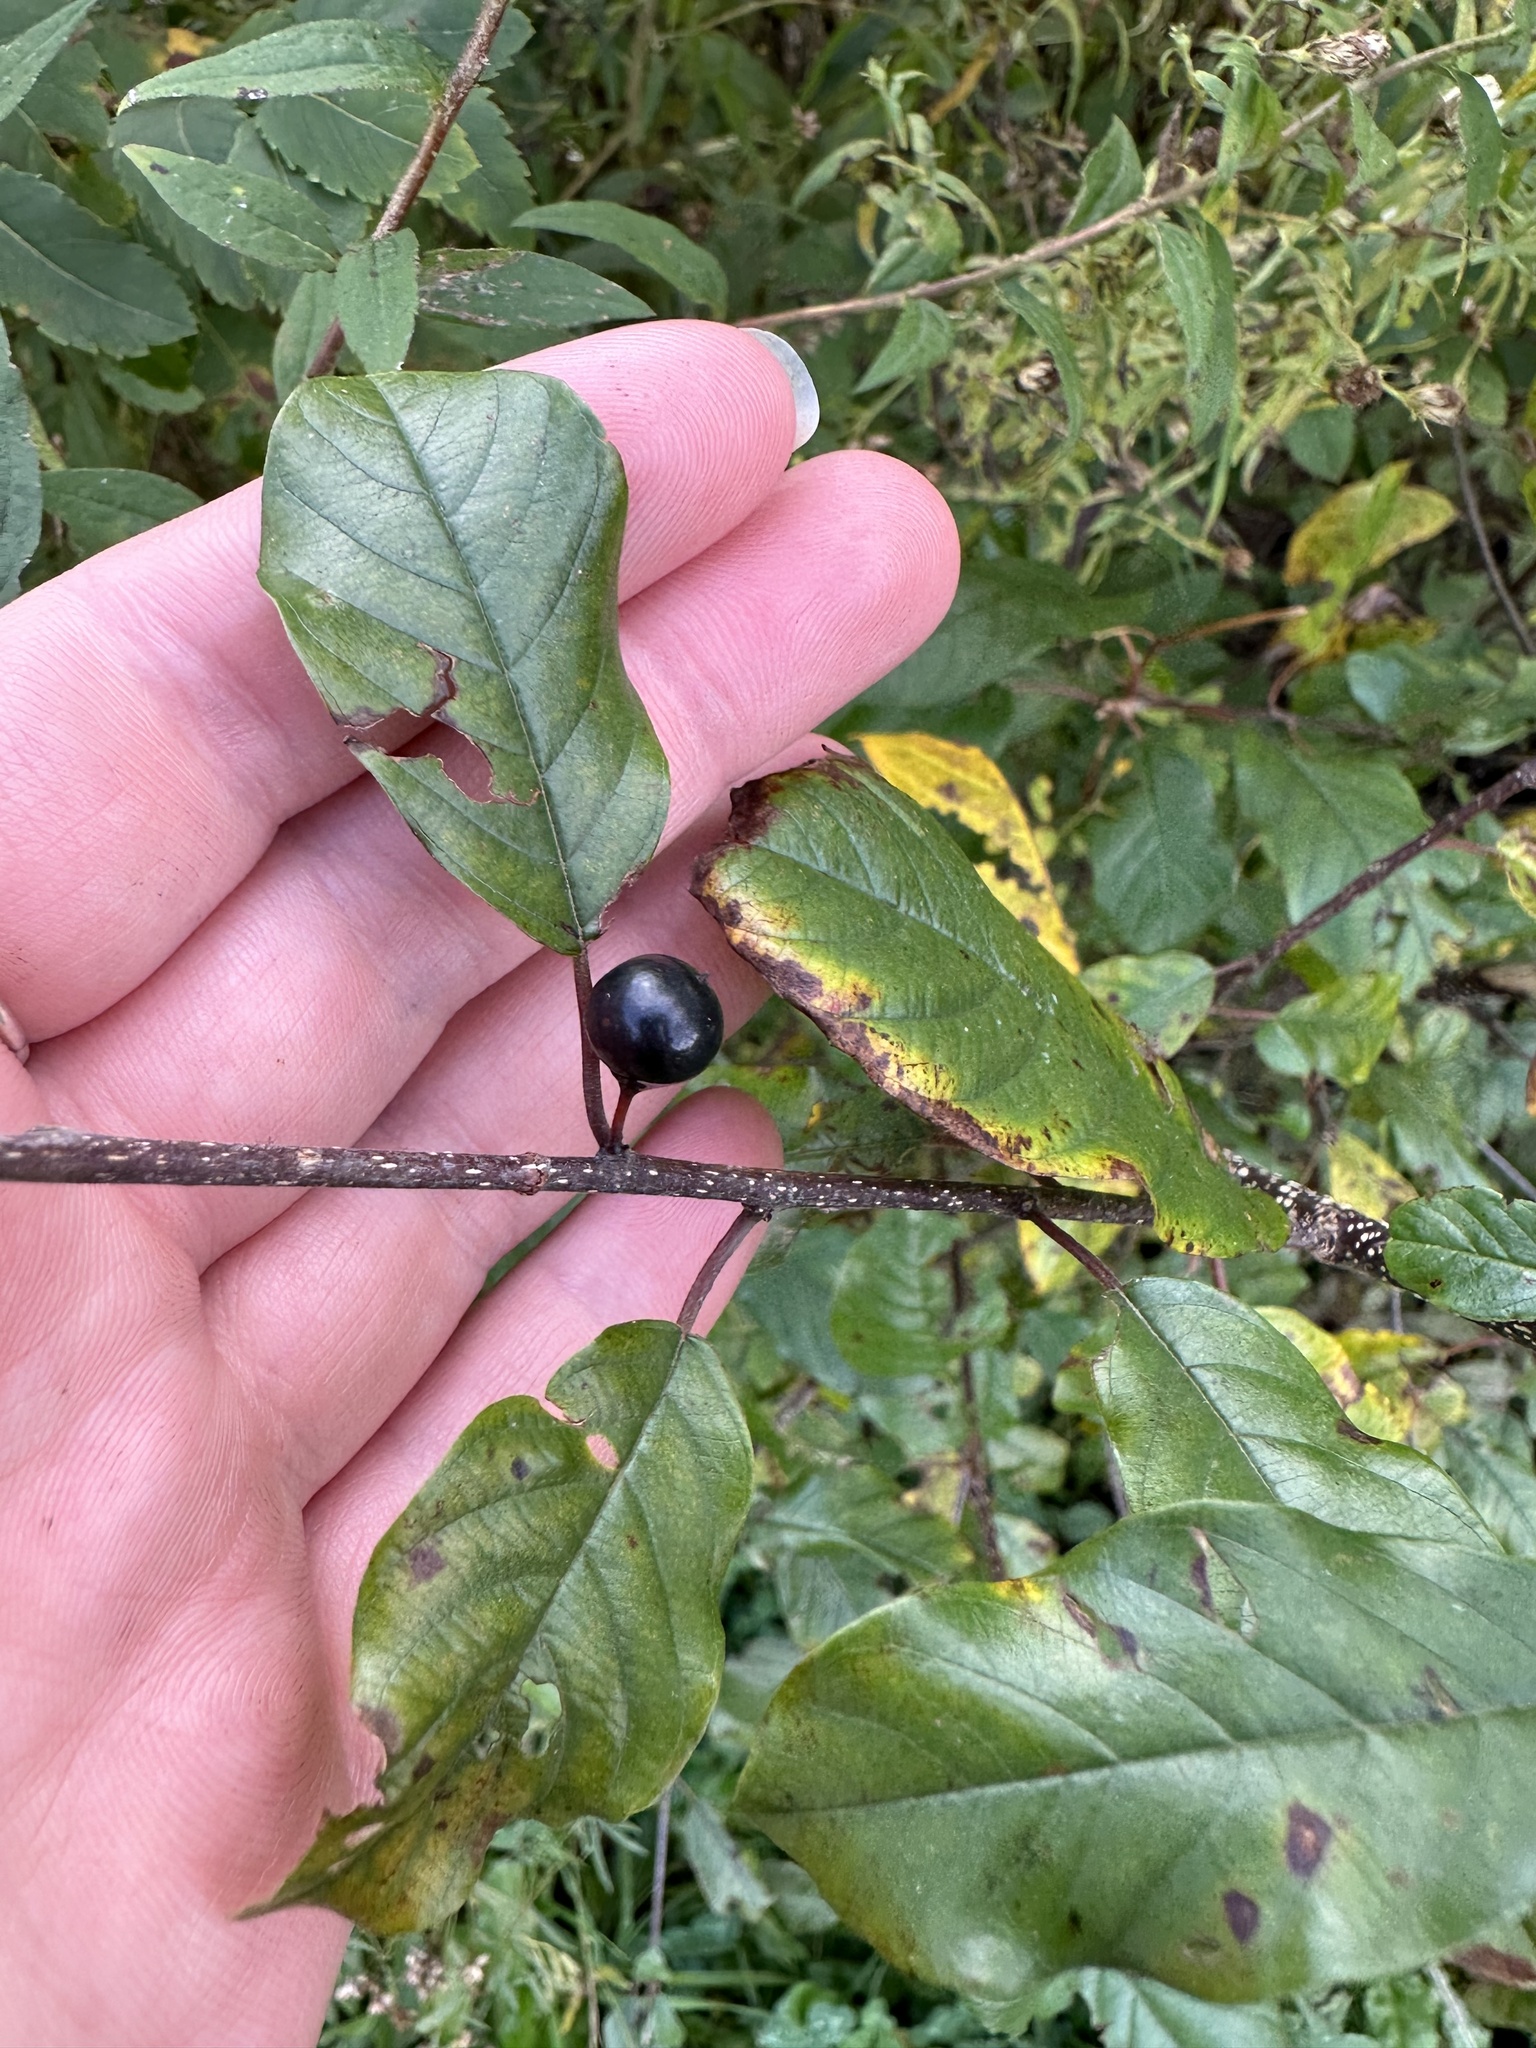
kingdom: Plantae
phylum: Tracheophyta
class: Magnoliopsida
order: Rosales
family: Rhamnaceae
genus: Frangula
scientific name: Frangula alnus
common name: Alder buckthorn
